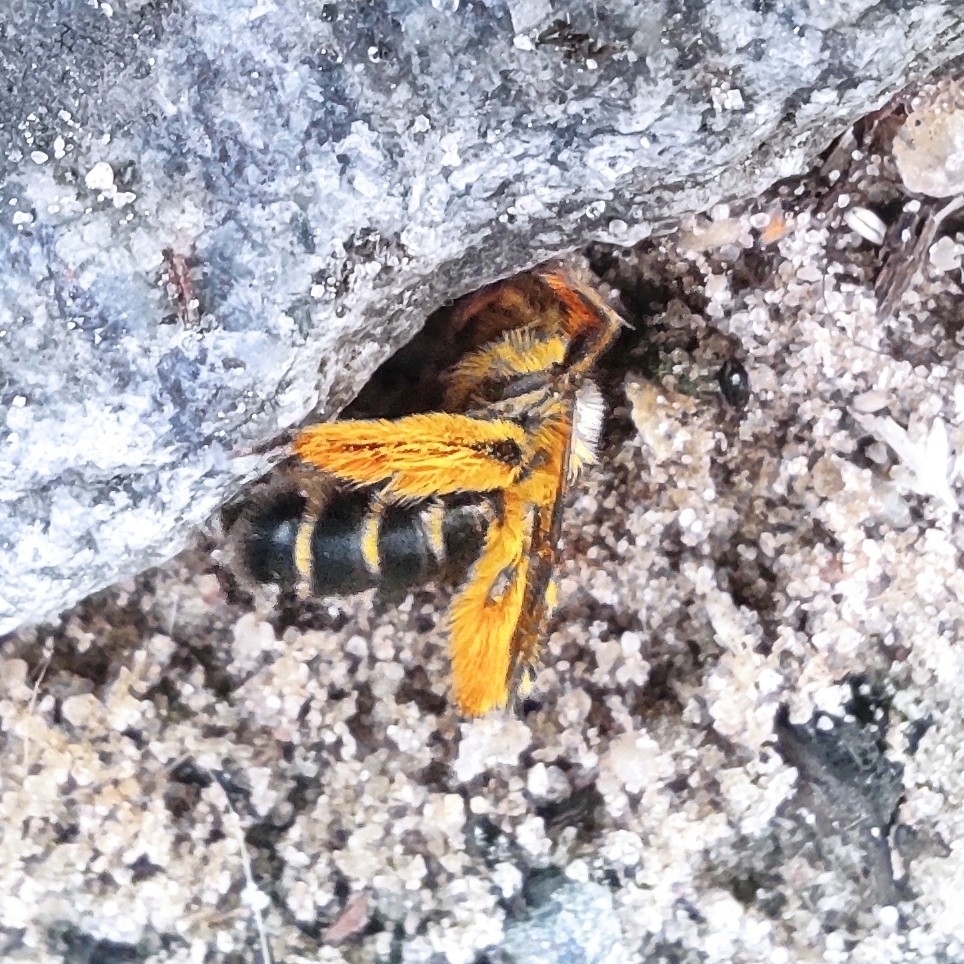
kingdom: Animalia
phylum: Arthropoda
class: Insecta
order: Hymenoptera
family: Melittidae
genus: Dasypoda
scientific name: Dasypoda hirtipes
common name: Pantaloon bee
